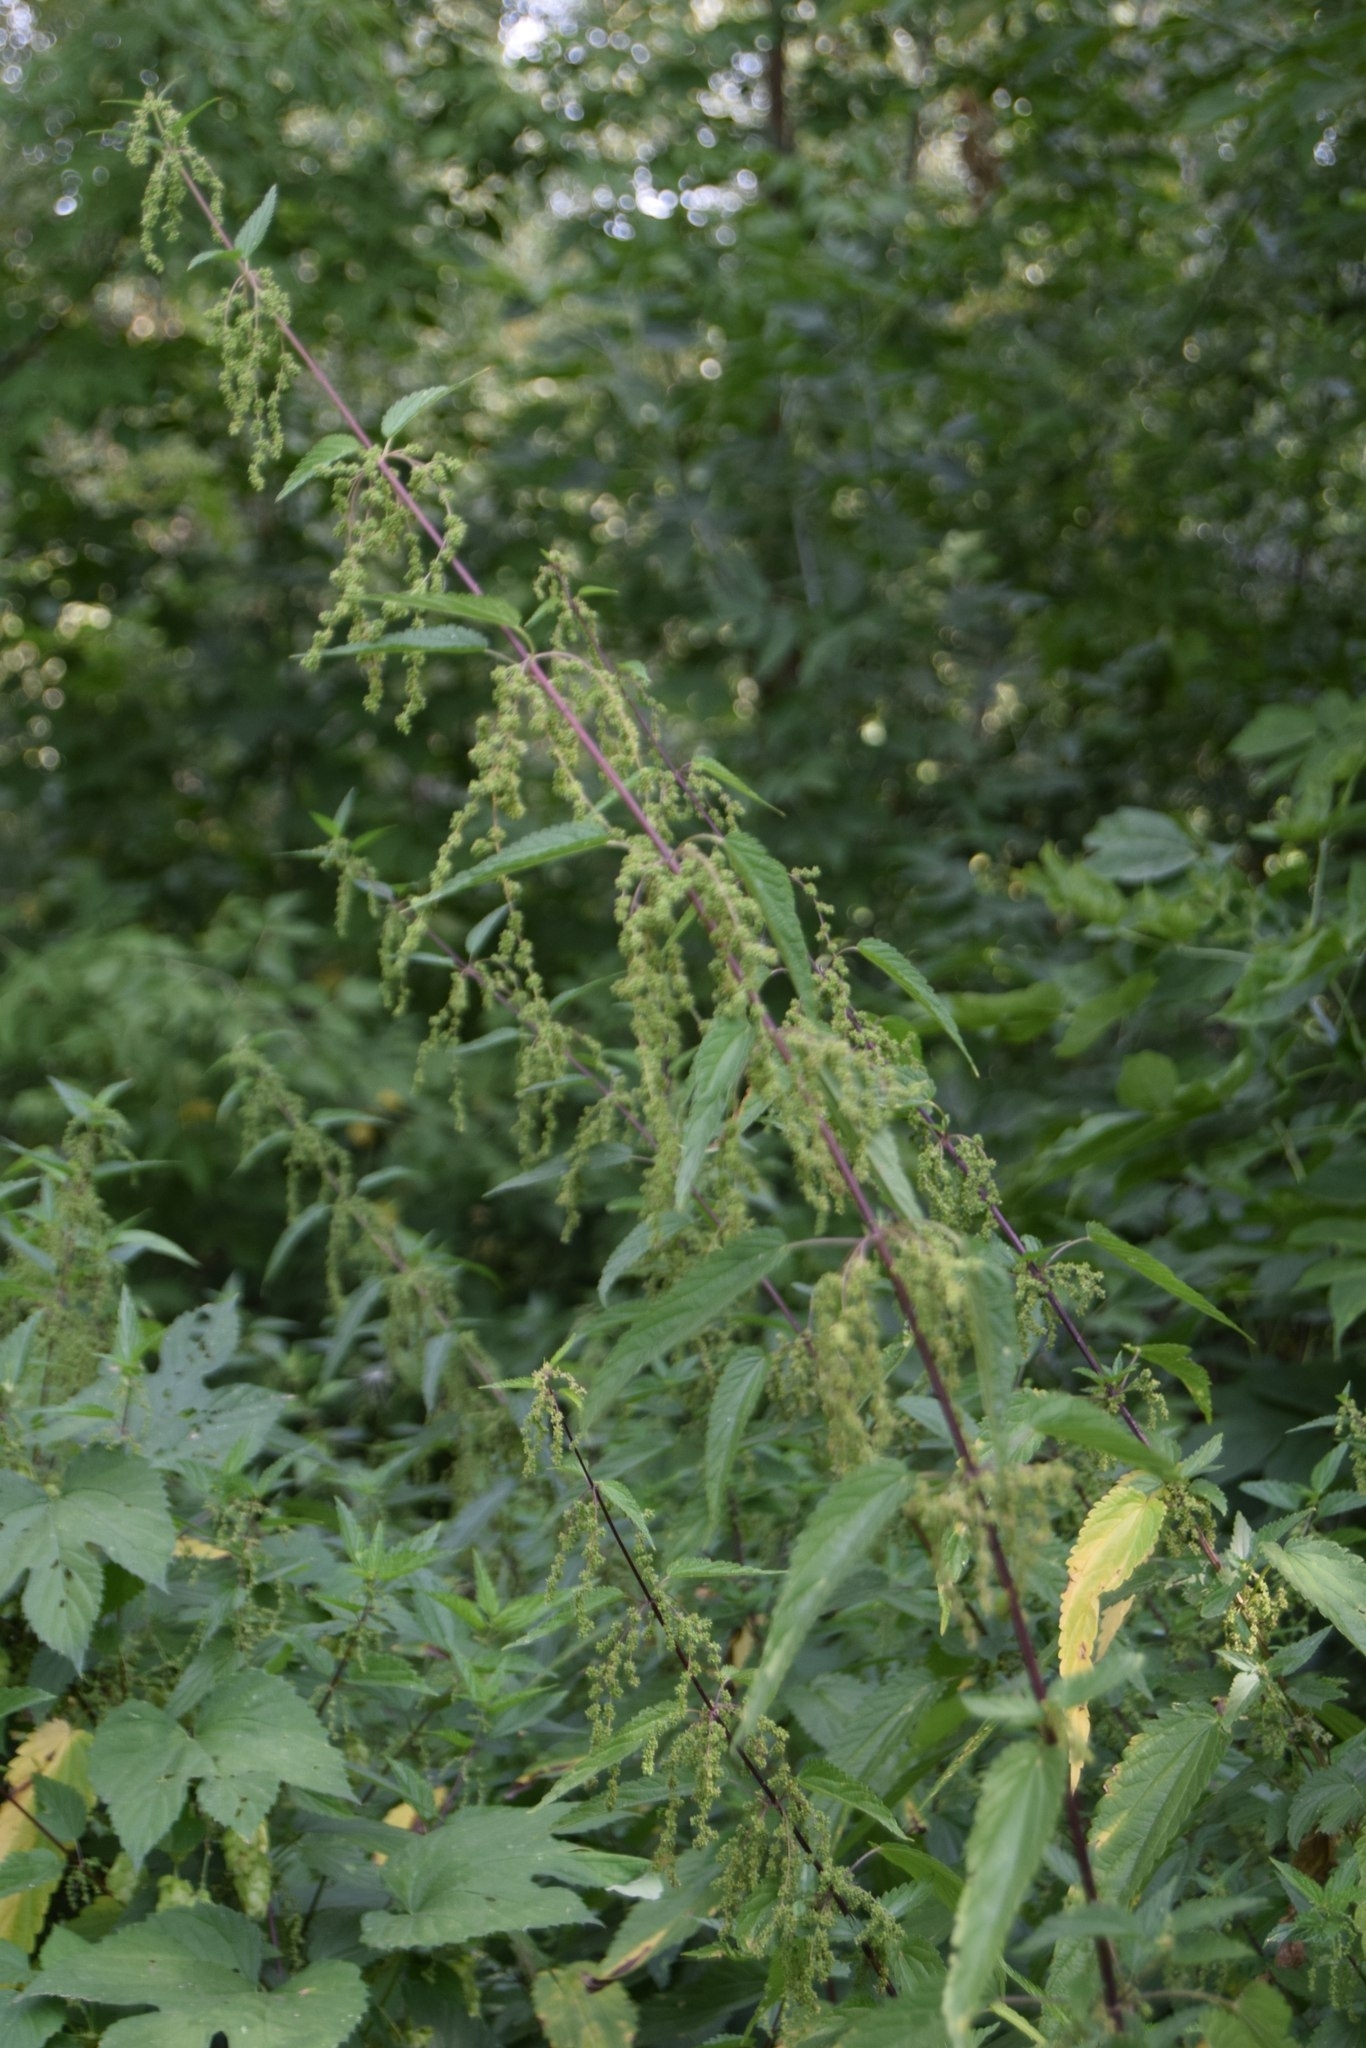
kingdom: Plantae
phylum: Tracheophyta
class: Magnoliopsida
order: Rosales
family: Urticaceae
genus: Urtica
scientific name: Urtica dioica
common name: Common nettle
